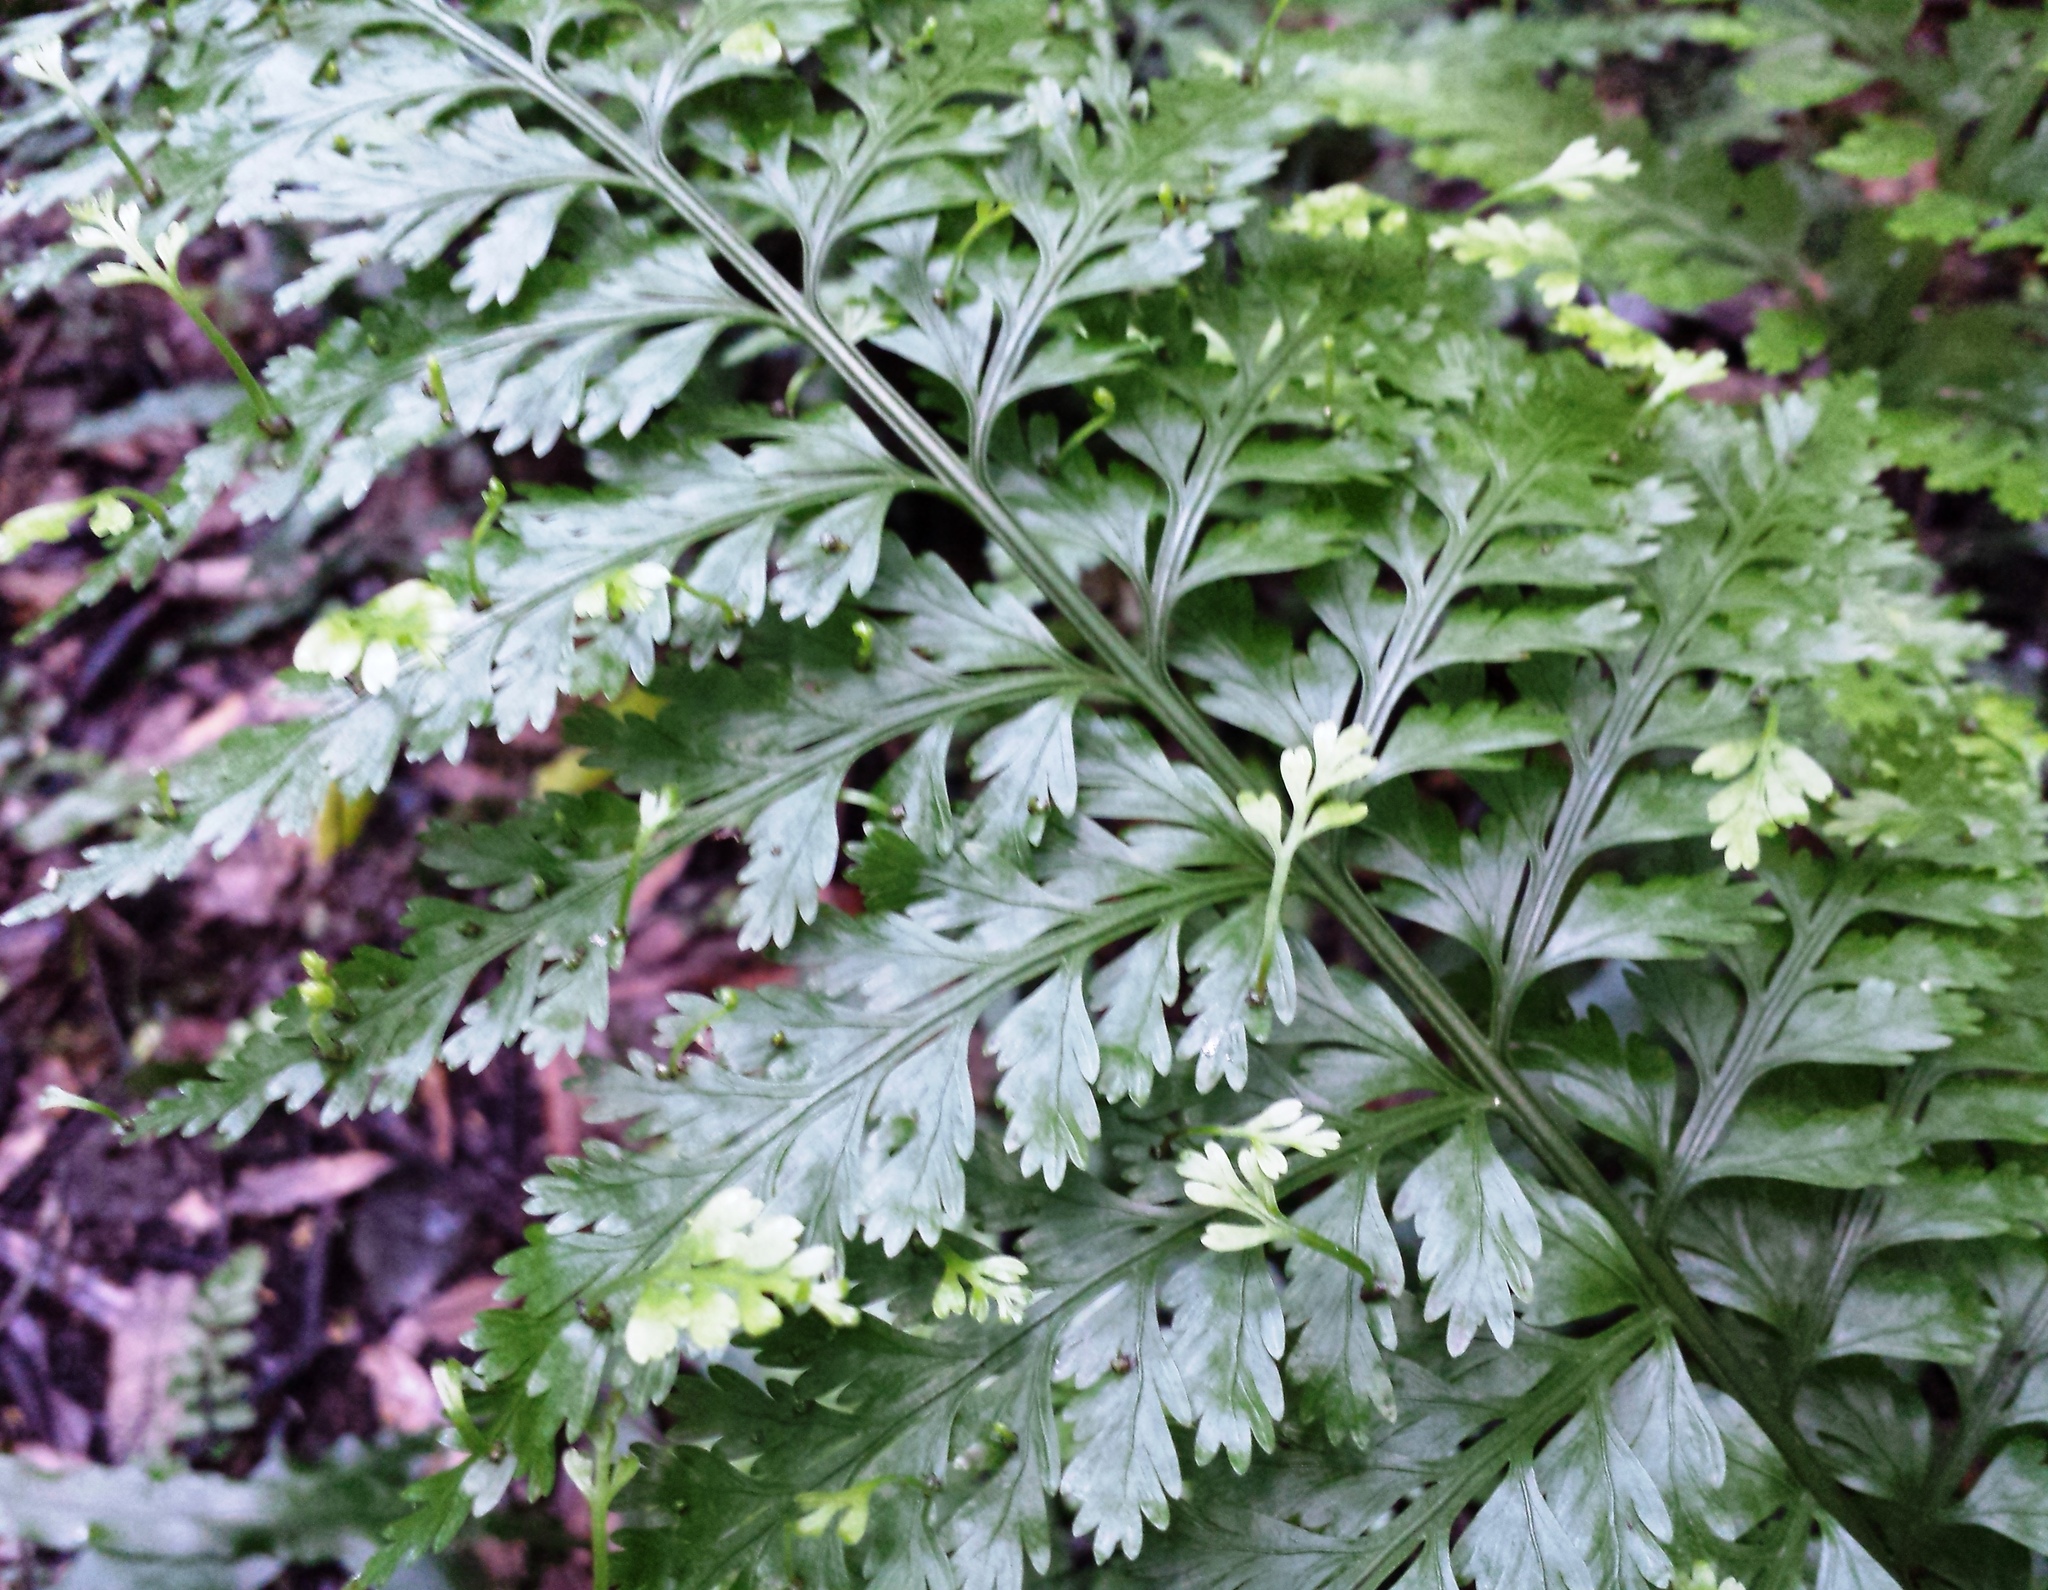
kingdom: Plantae
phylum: Tracheophyta
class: Polypodiopsida
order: Polypodiales
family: Aspleniaceae
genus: Asplenium
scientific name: Asplenium bulbiferum
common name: Mother fern
